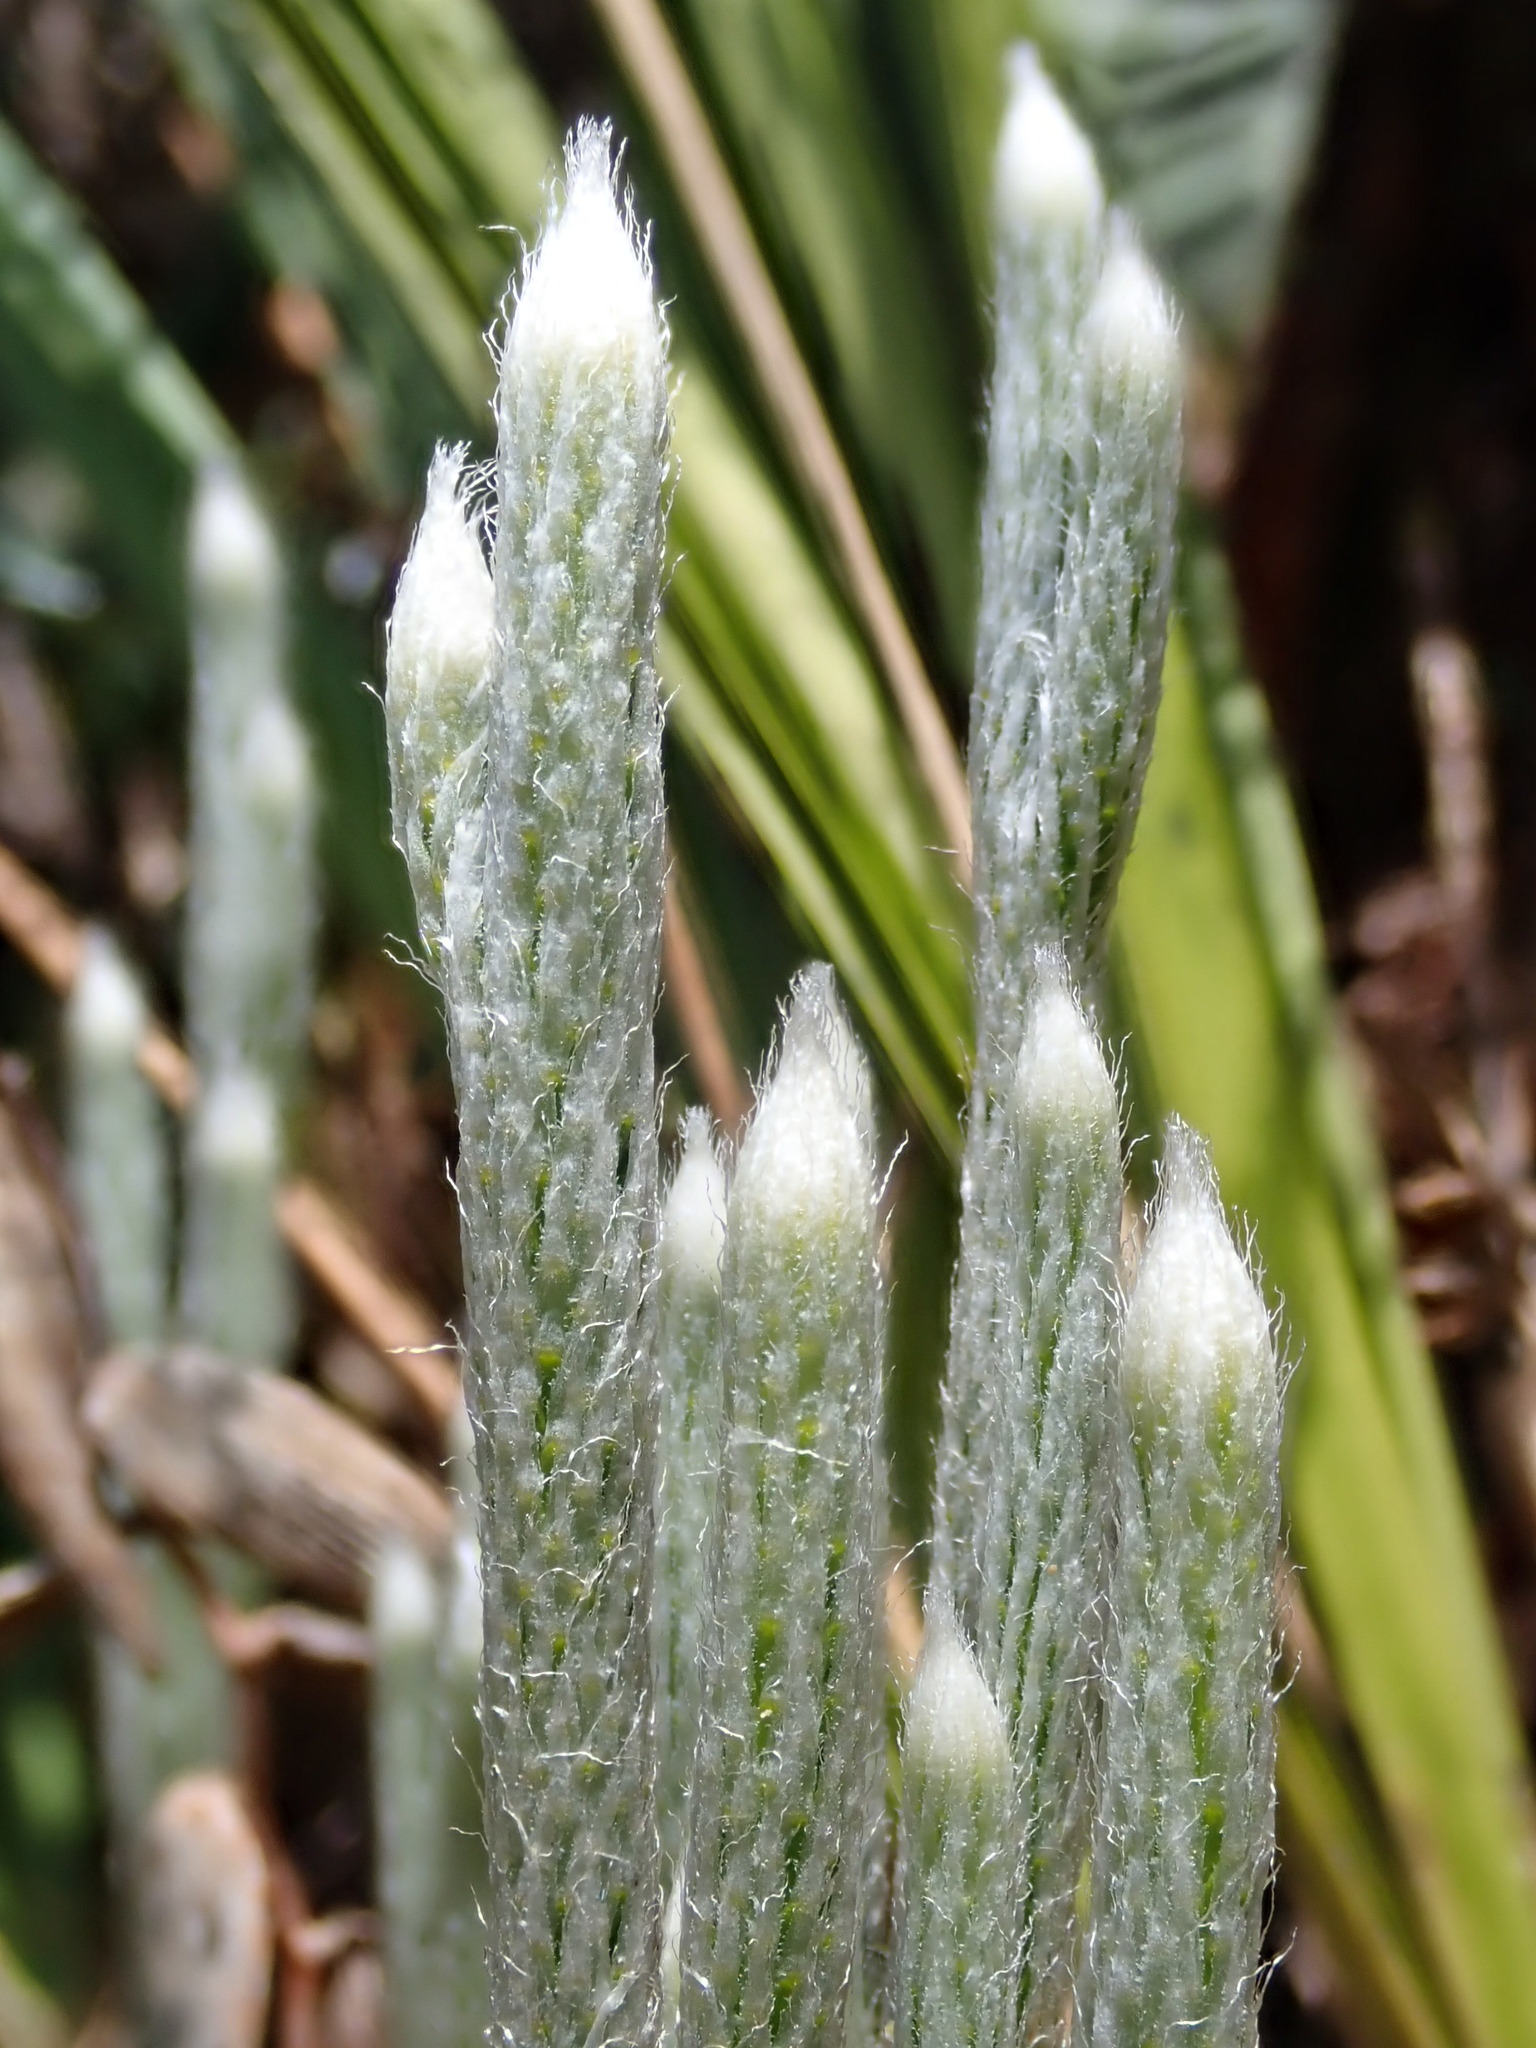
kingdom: Plantae
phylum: Tracheophyta
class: Lycopodiopsida
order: Lycopodiales
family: Lycopodiaceae
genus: Lycopodium
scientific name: Lycopodium vestitum
